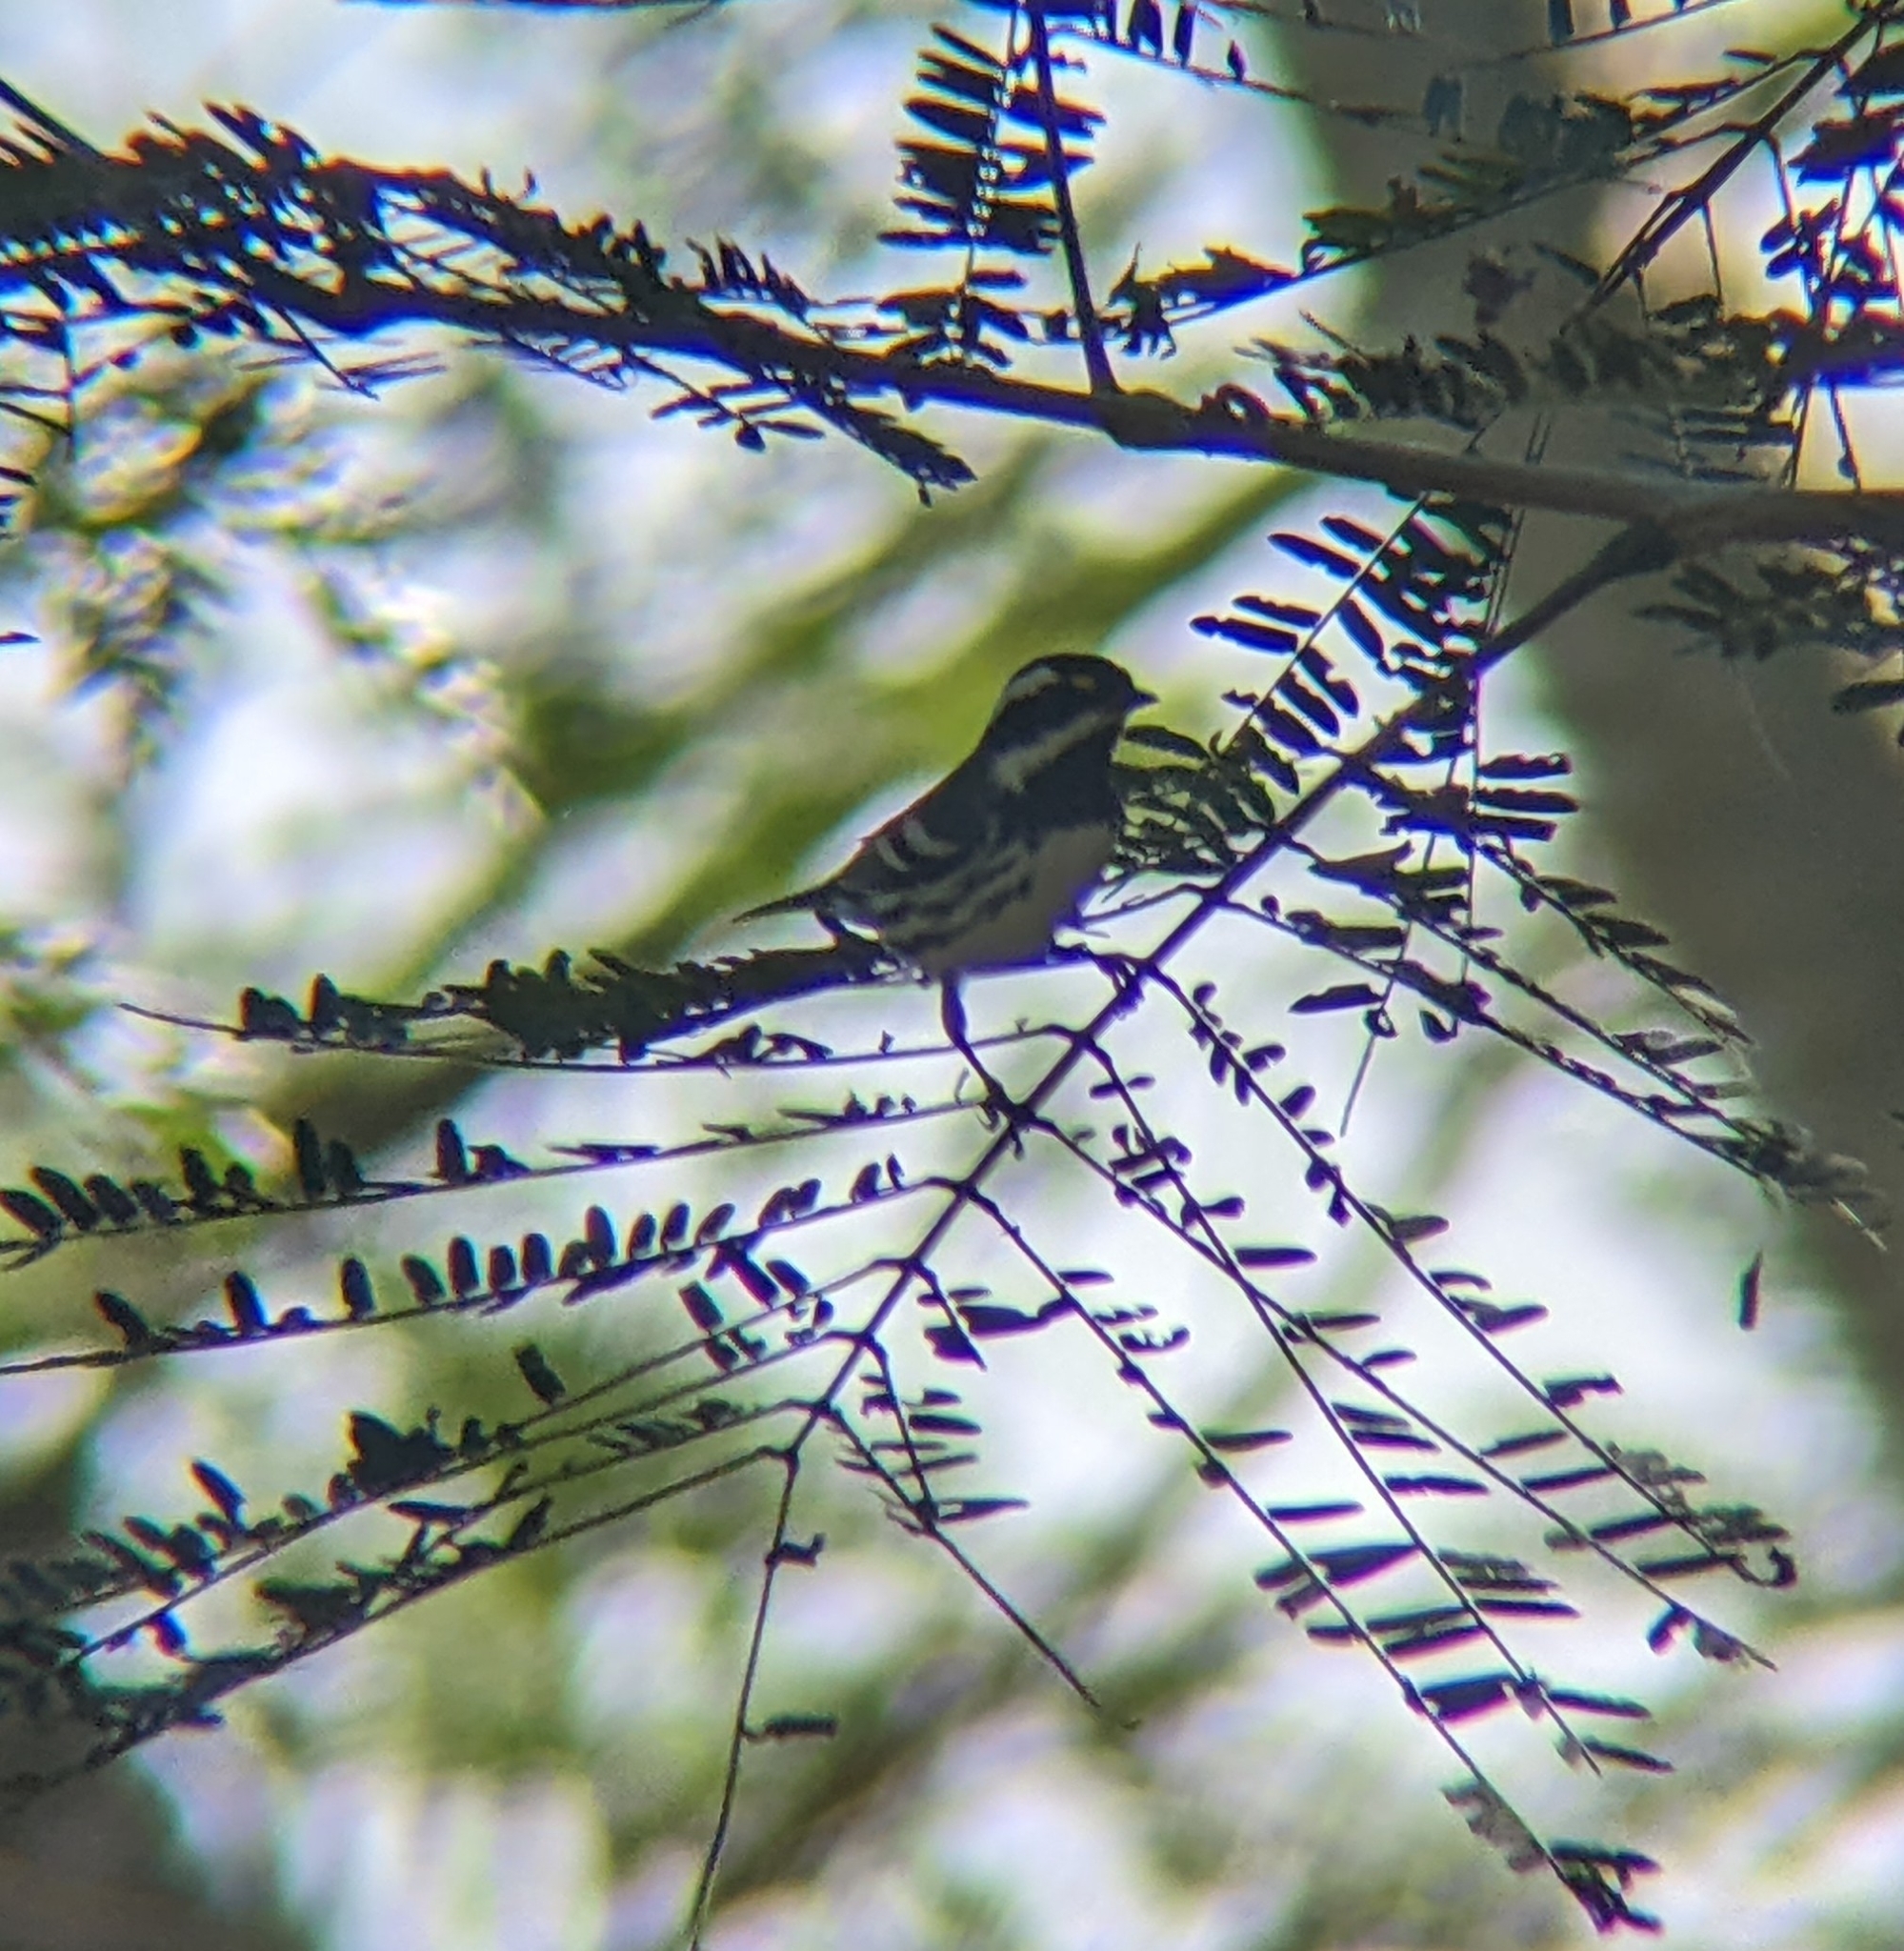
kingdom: Animalia
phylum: Chordata
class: Aves
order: Passeriformes
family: Parulidae
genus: Setophaga
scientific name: Setophaga nigrescens
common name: Black-throated gray warbler
